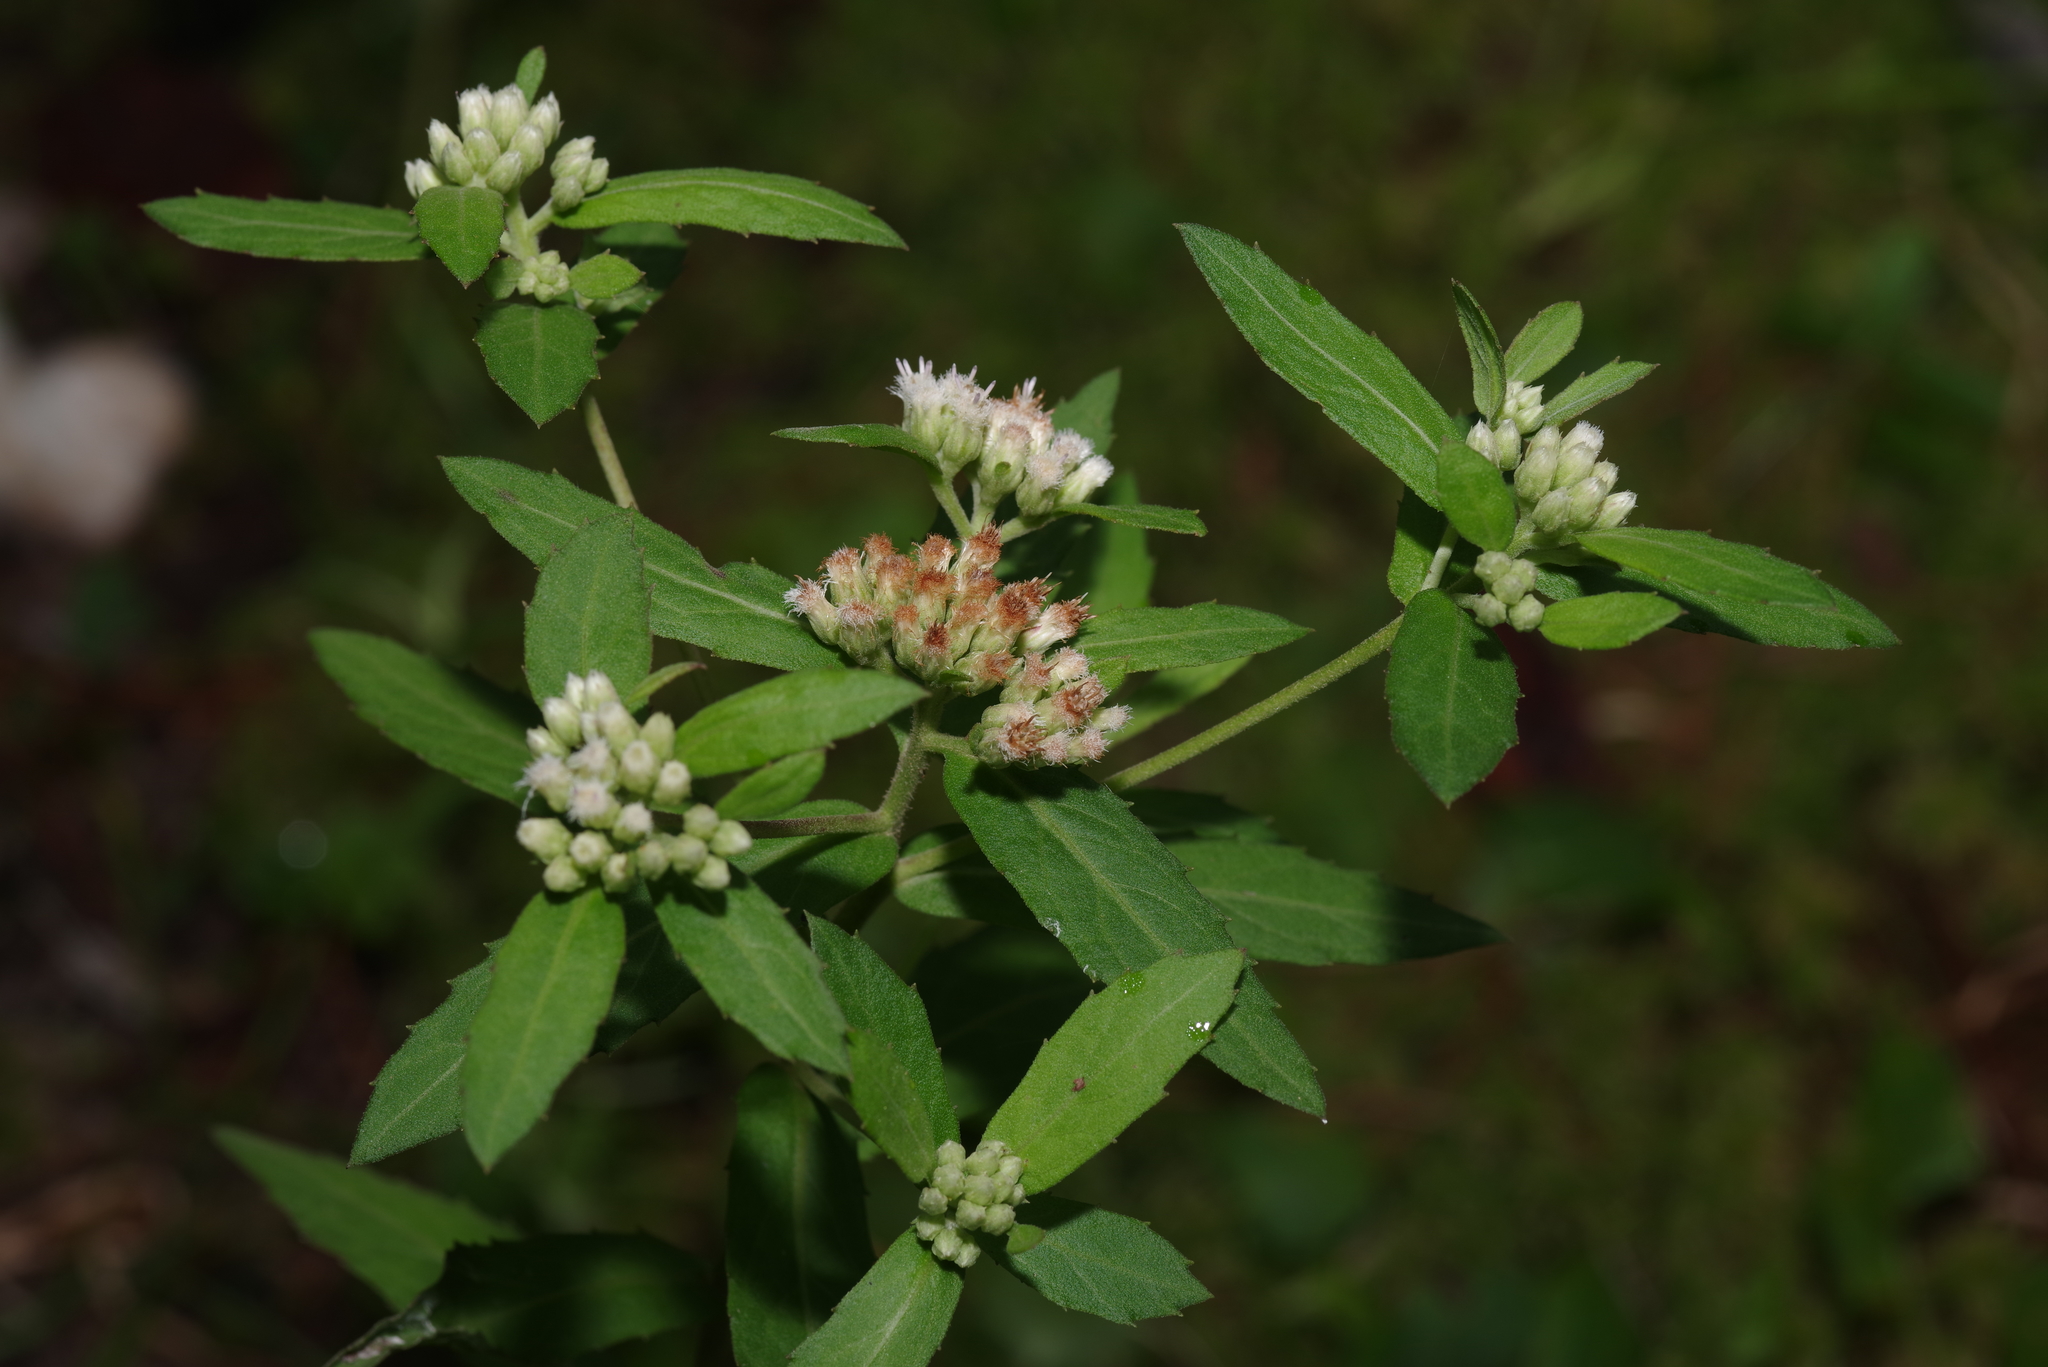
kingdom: Plantae
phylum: Tracheophyta
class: Magnoliopsida
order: Asterales
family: Asteraceae
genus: Pluchea
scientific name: Pluchea foetida
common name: Stinking camphorweed
